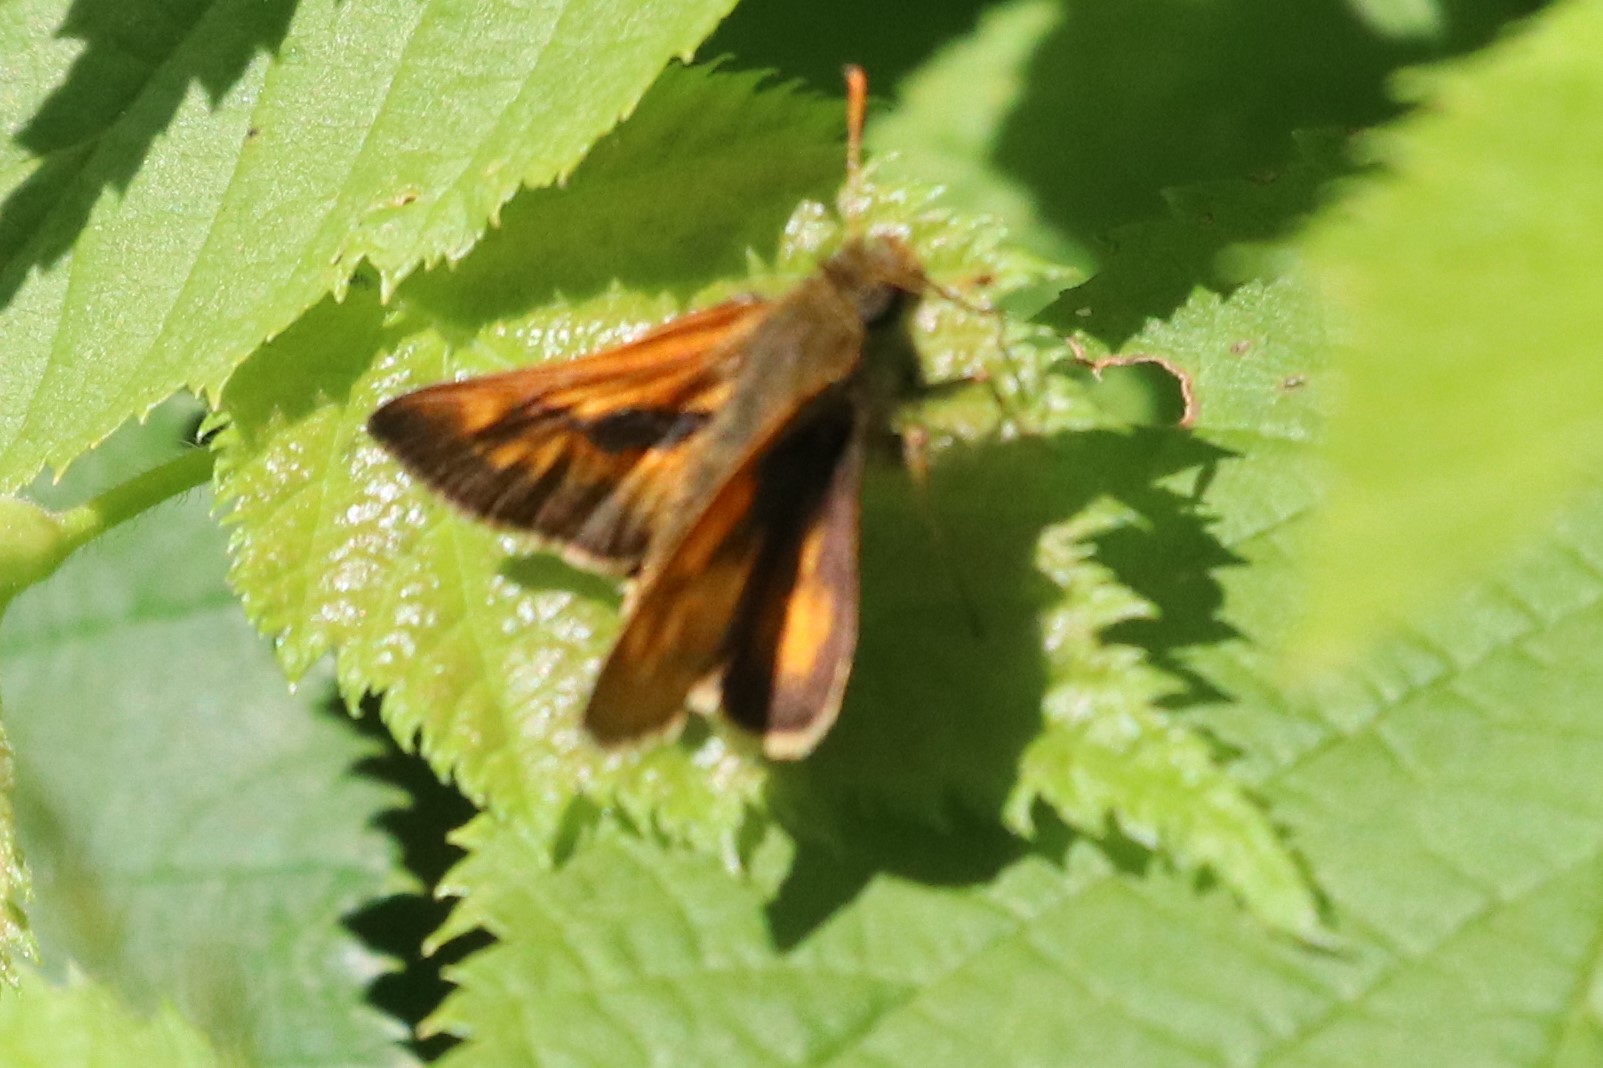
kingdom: Animalia
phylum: Arthropoda
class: Insecta
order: Lepidoptera
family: Hesperiidae
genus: Polites
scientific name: Polites mystic
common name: Long dash
